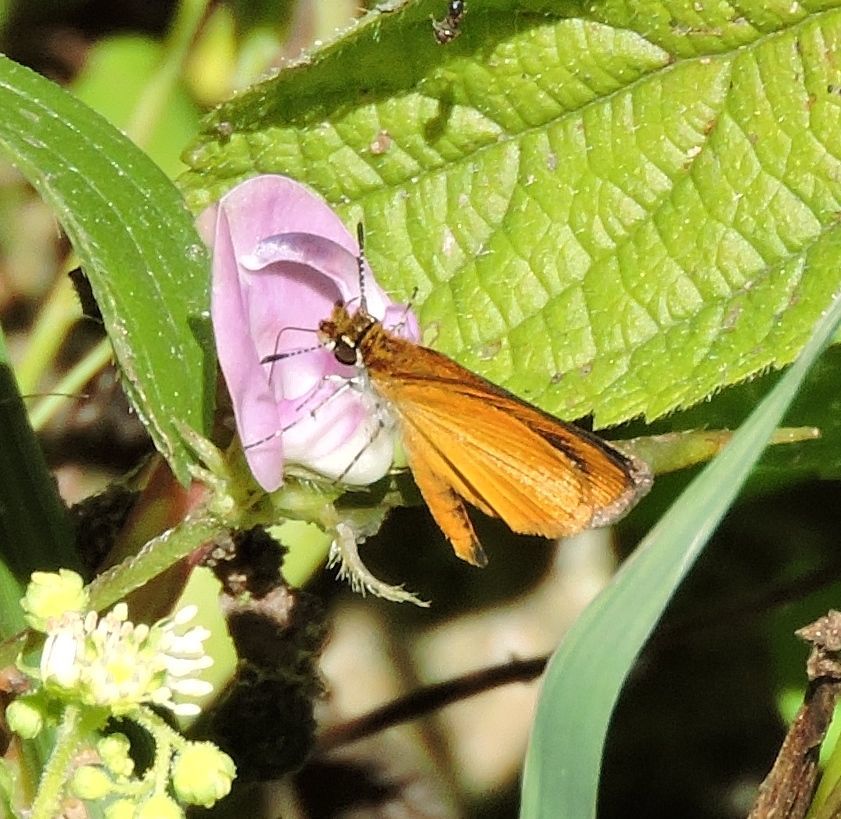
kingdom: Animalia
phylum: Arthropoda
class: Insecta
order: Lepidoptera
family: Hesperiidae
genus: Ancyloxypha
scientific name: Ancyloxypha numitor
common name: Least skipper
